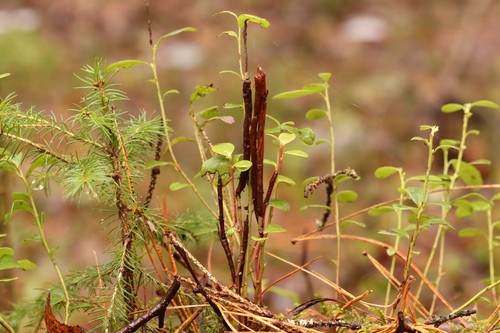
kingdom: Fungi
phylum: Basidiomycota
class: Pucciniomycetes
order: Pucciniales
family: Pucciniastraceae
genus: Calyptospora
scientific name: Calyptospora columnaris
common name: Huckleberry broom rust fungus
